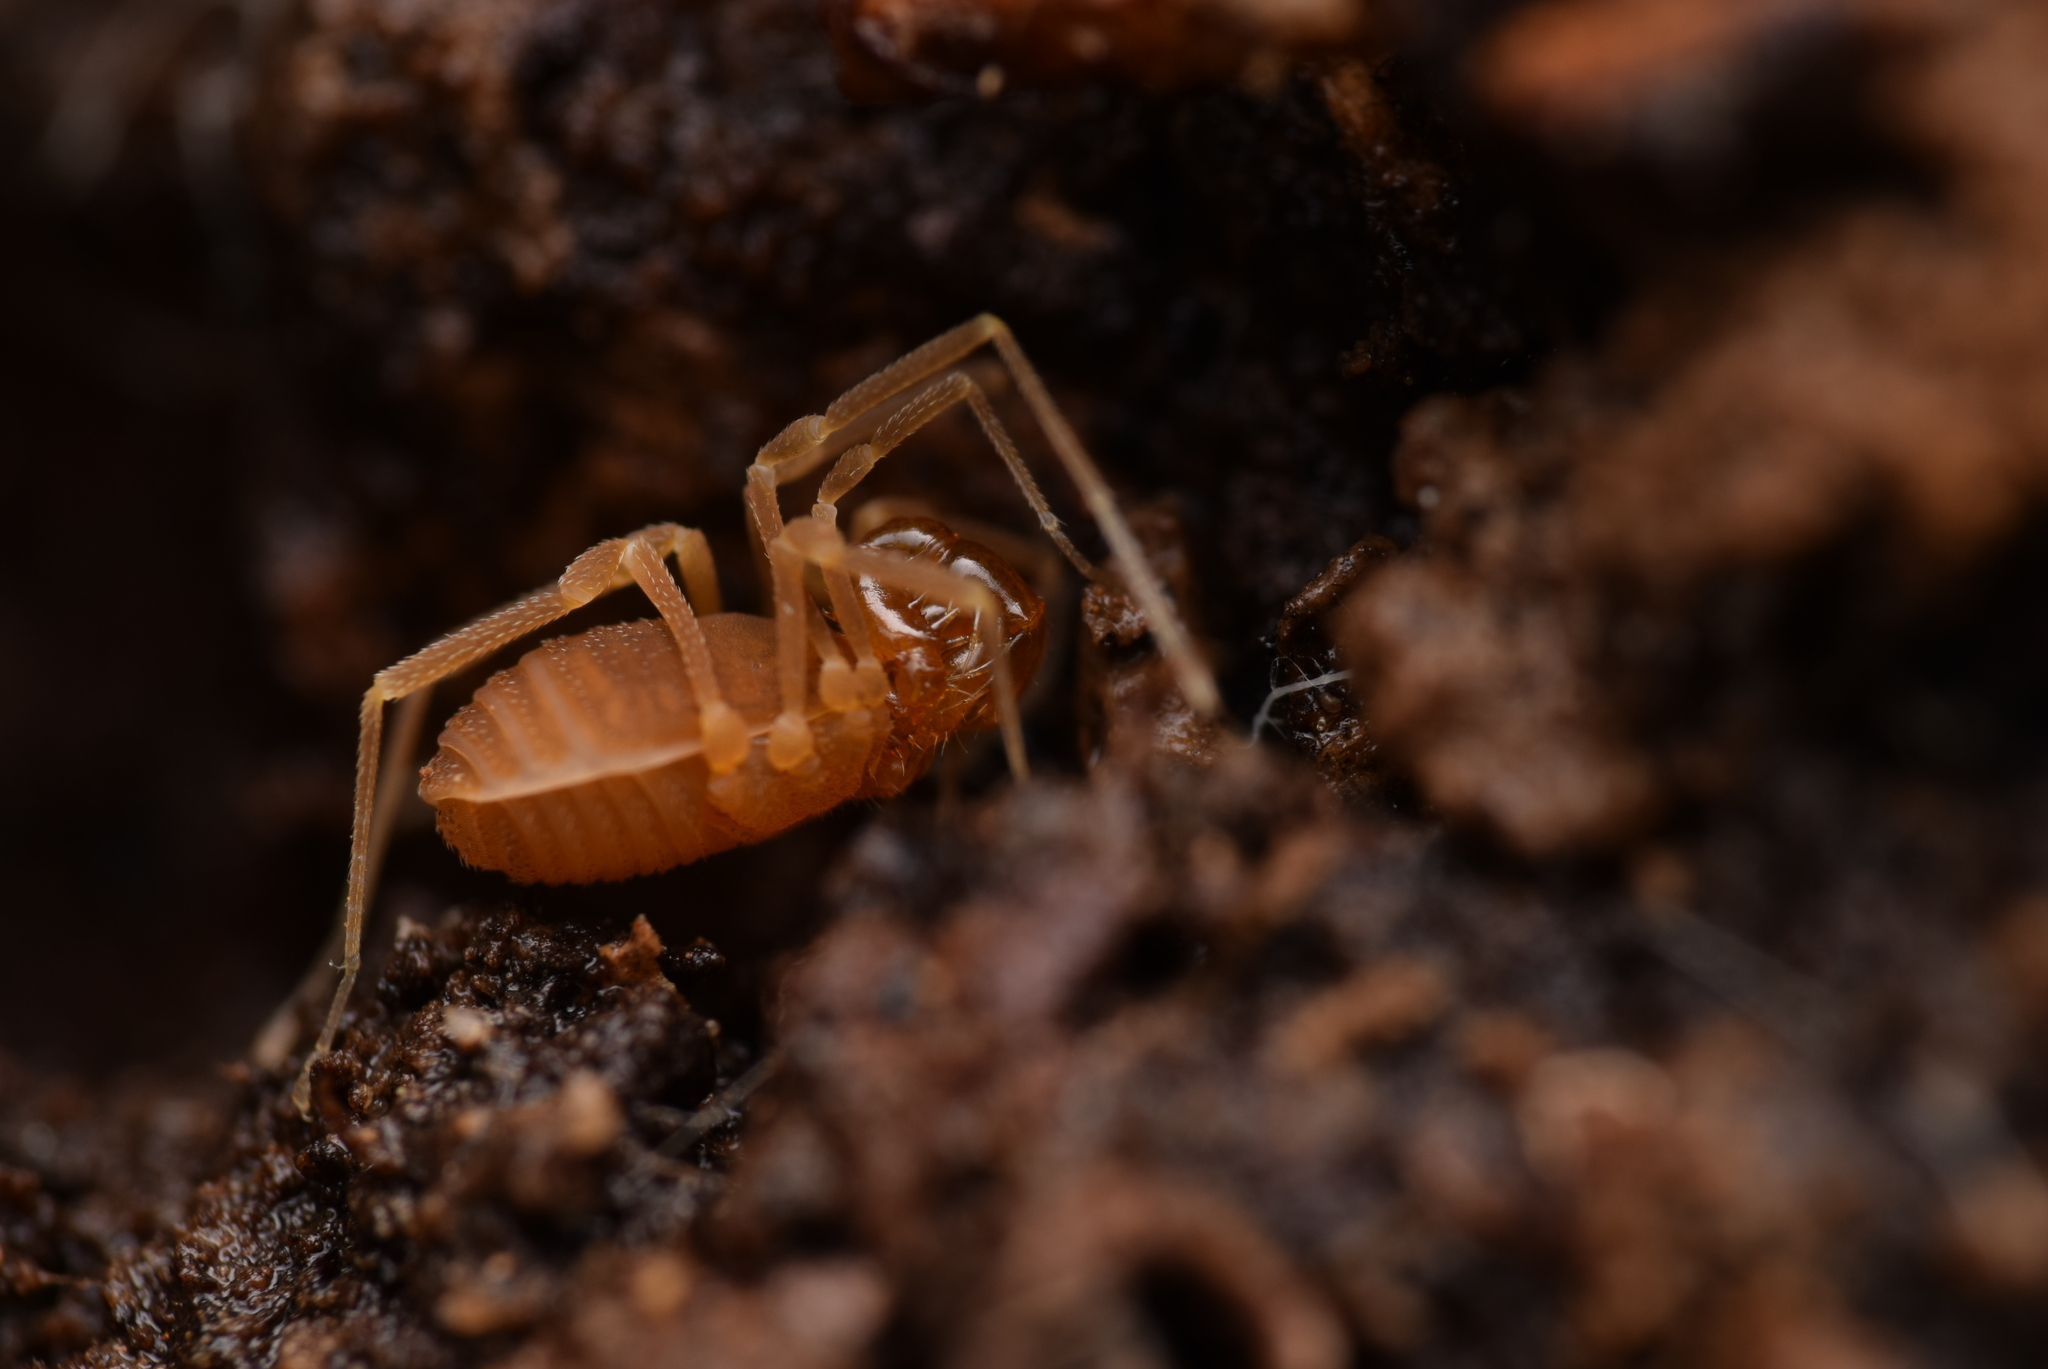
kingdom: Animalia
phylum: Arthropoda
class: Arachnida
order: Opiliones
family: Cladonychiidae
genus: Holoscotolemon
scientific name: Holoscotolemon querilhaci
